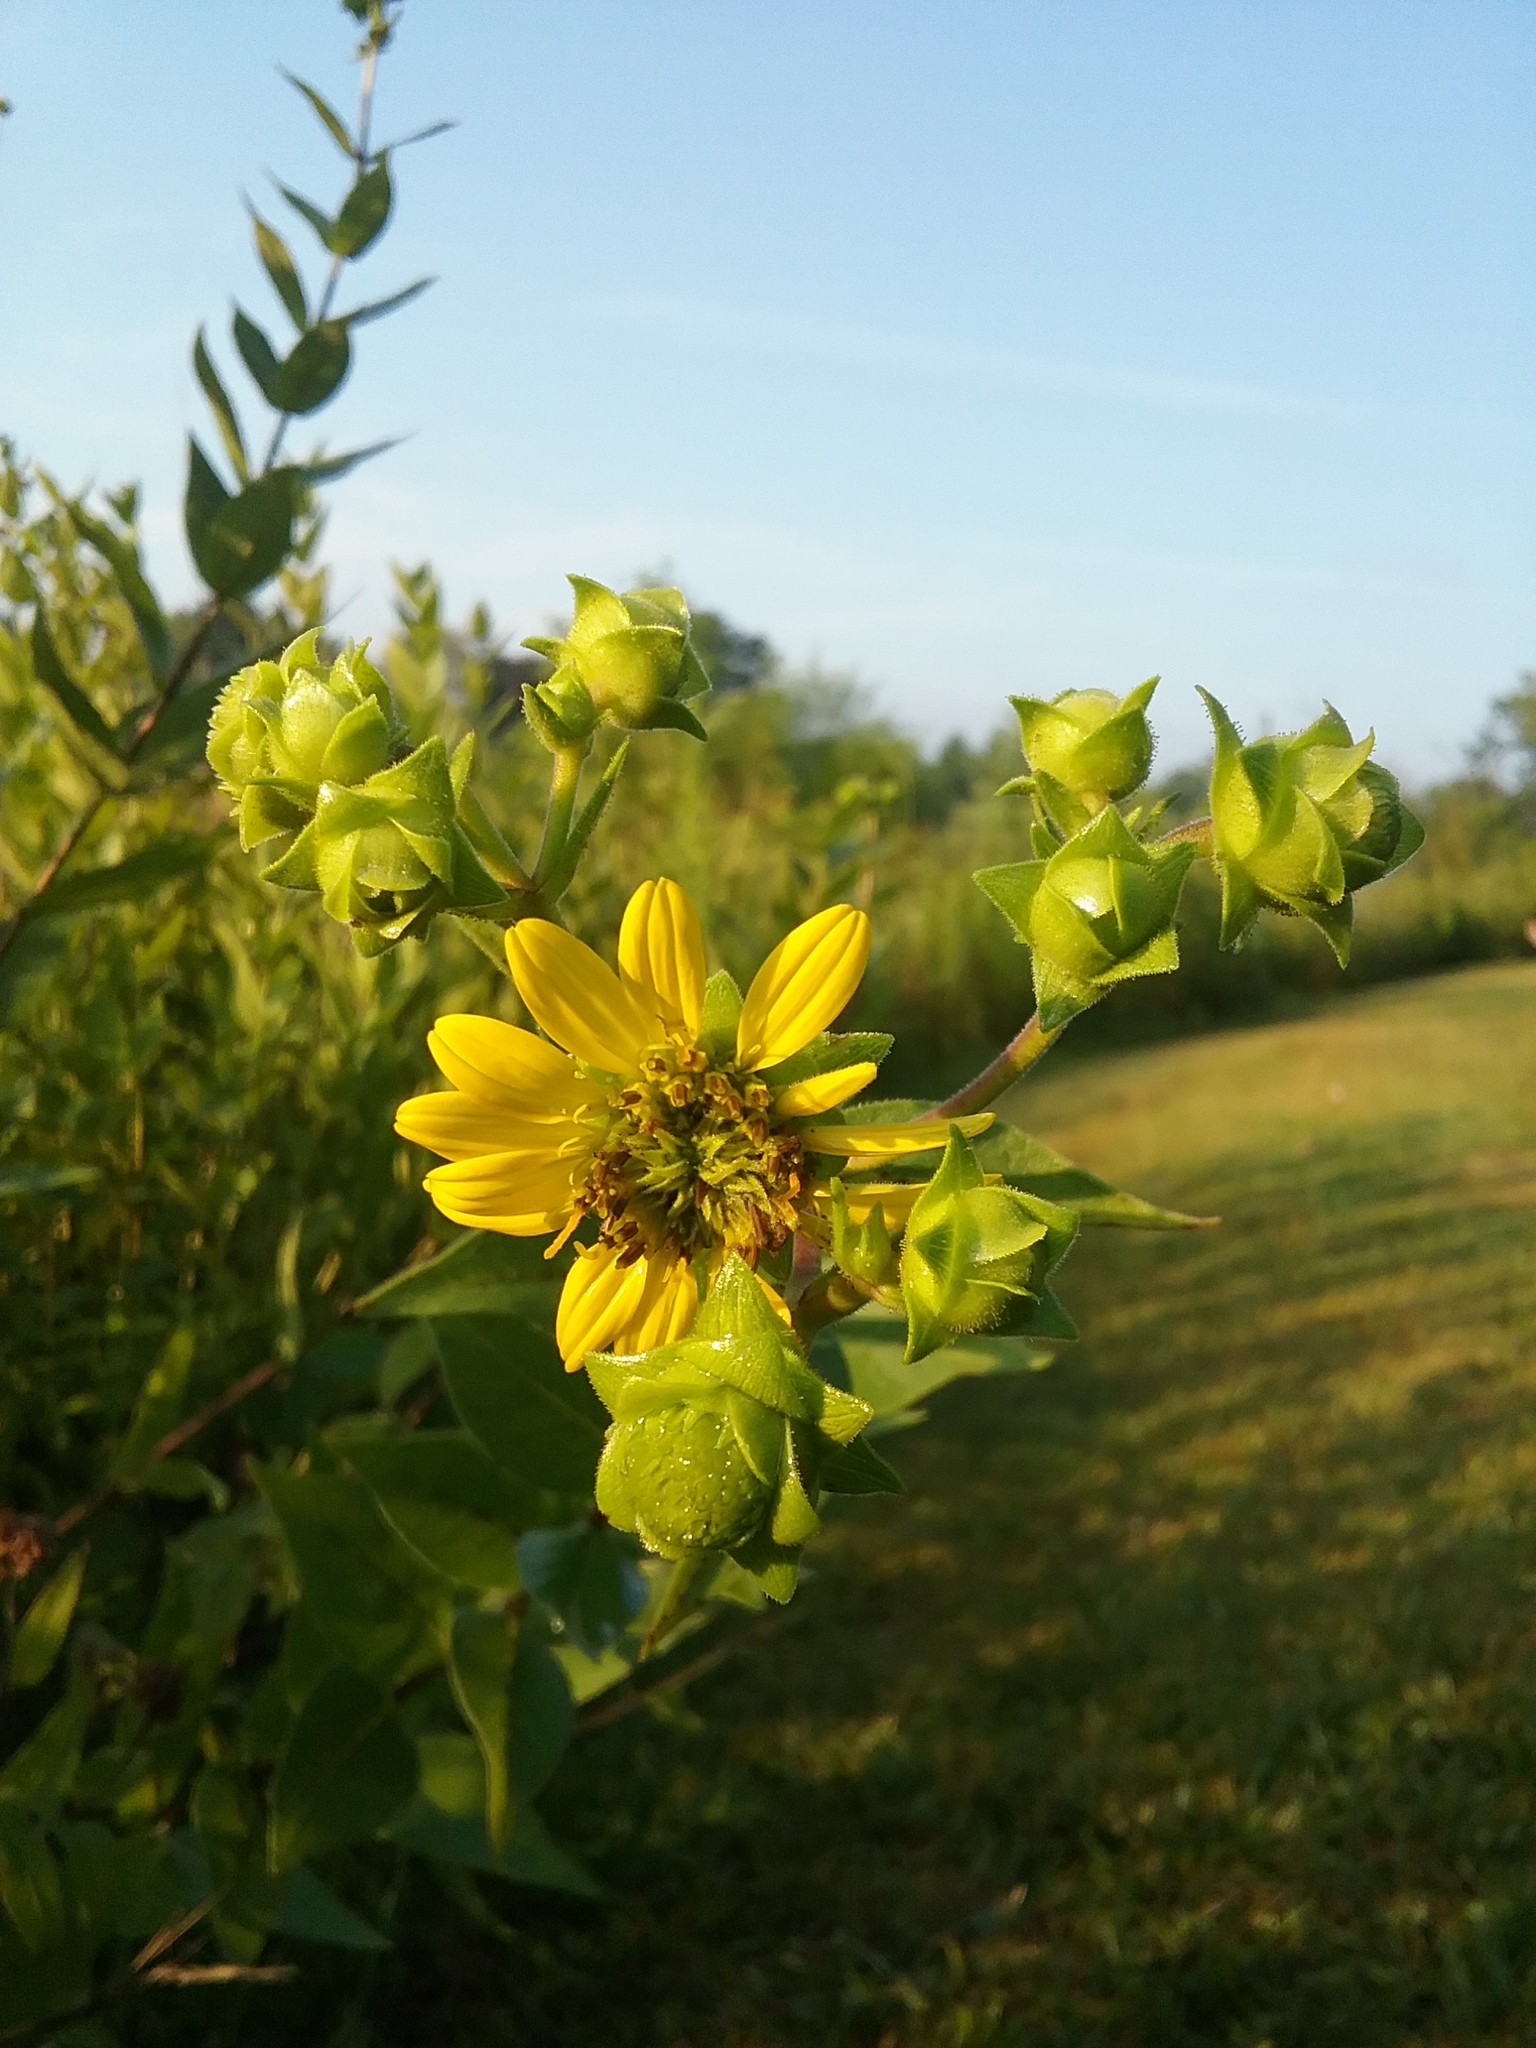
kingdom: Plantae
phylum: Tracheophyta
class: Magnoliopsida
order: Asterales
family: Asteraceae
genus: Silphium
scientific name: Silphium integrifolium
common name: Whole-leaf rosinweed
